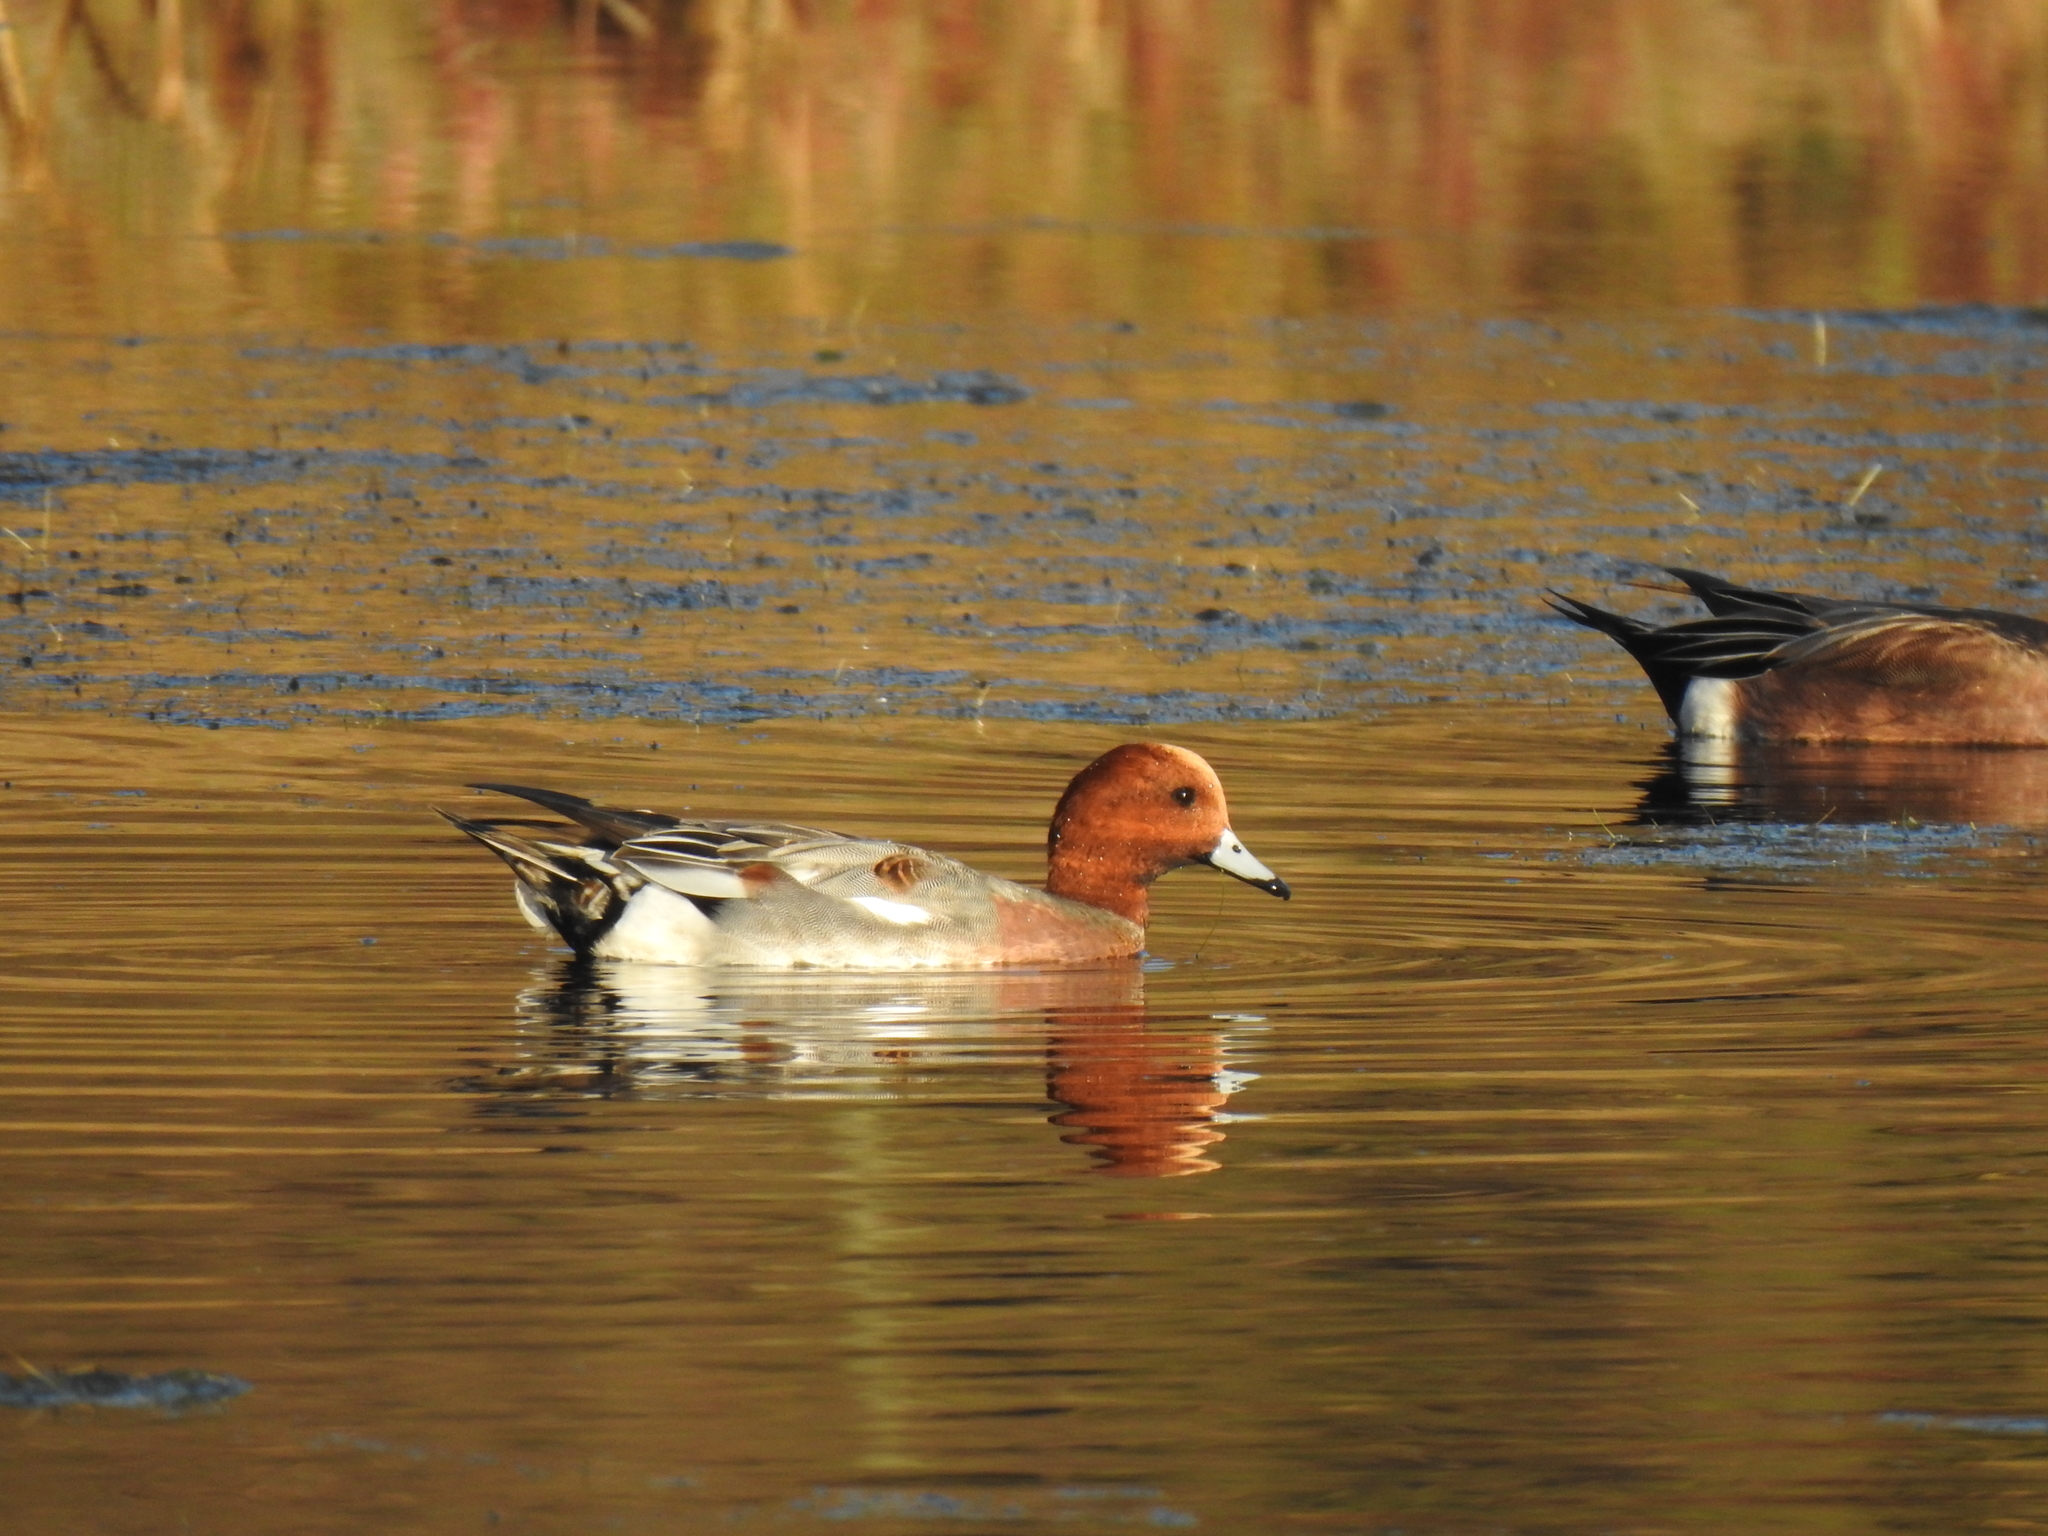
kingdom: Animalia
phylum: Chordata
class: Aves
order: Anseriformes
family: Anatidae
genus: Mareca
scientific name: Mareca penelope
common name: Eurasian wigeon
